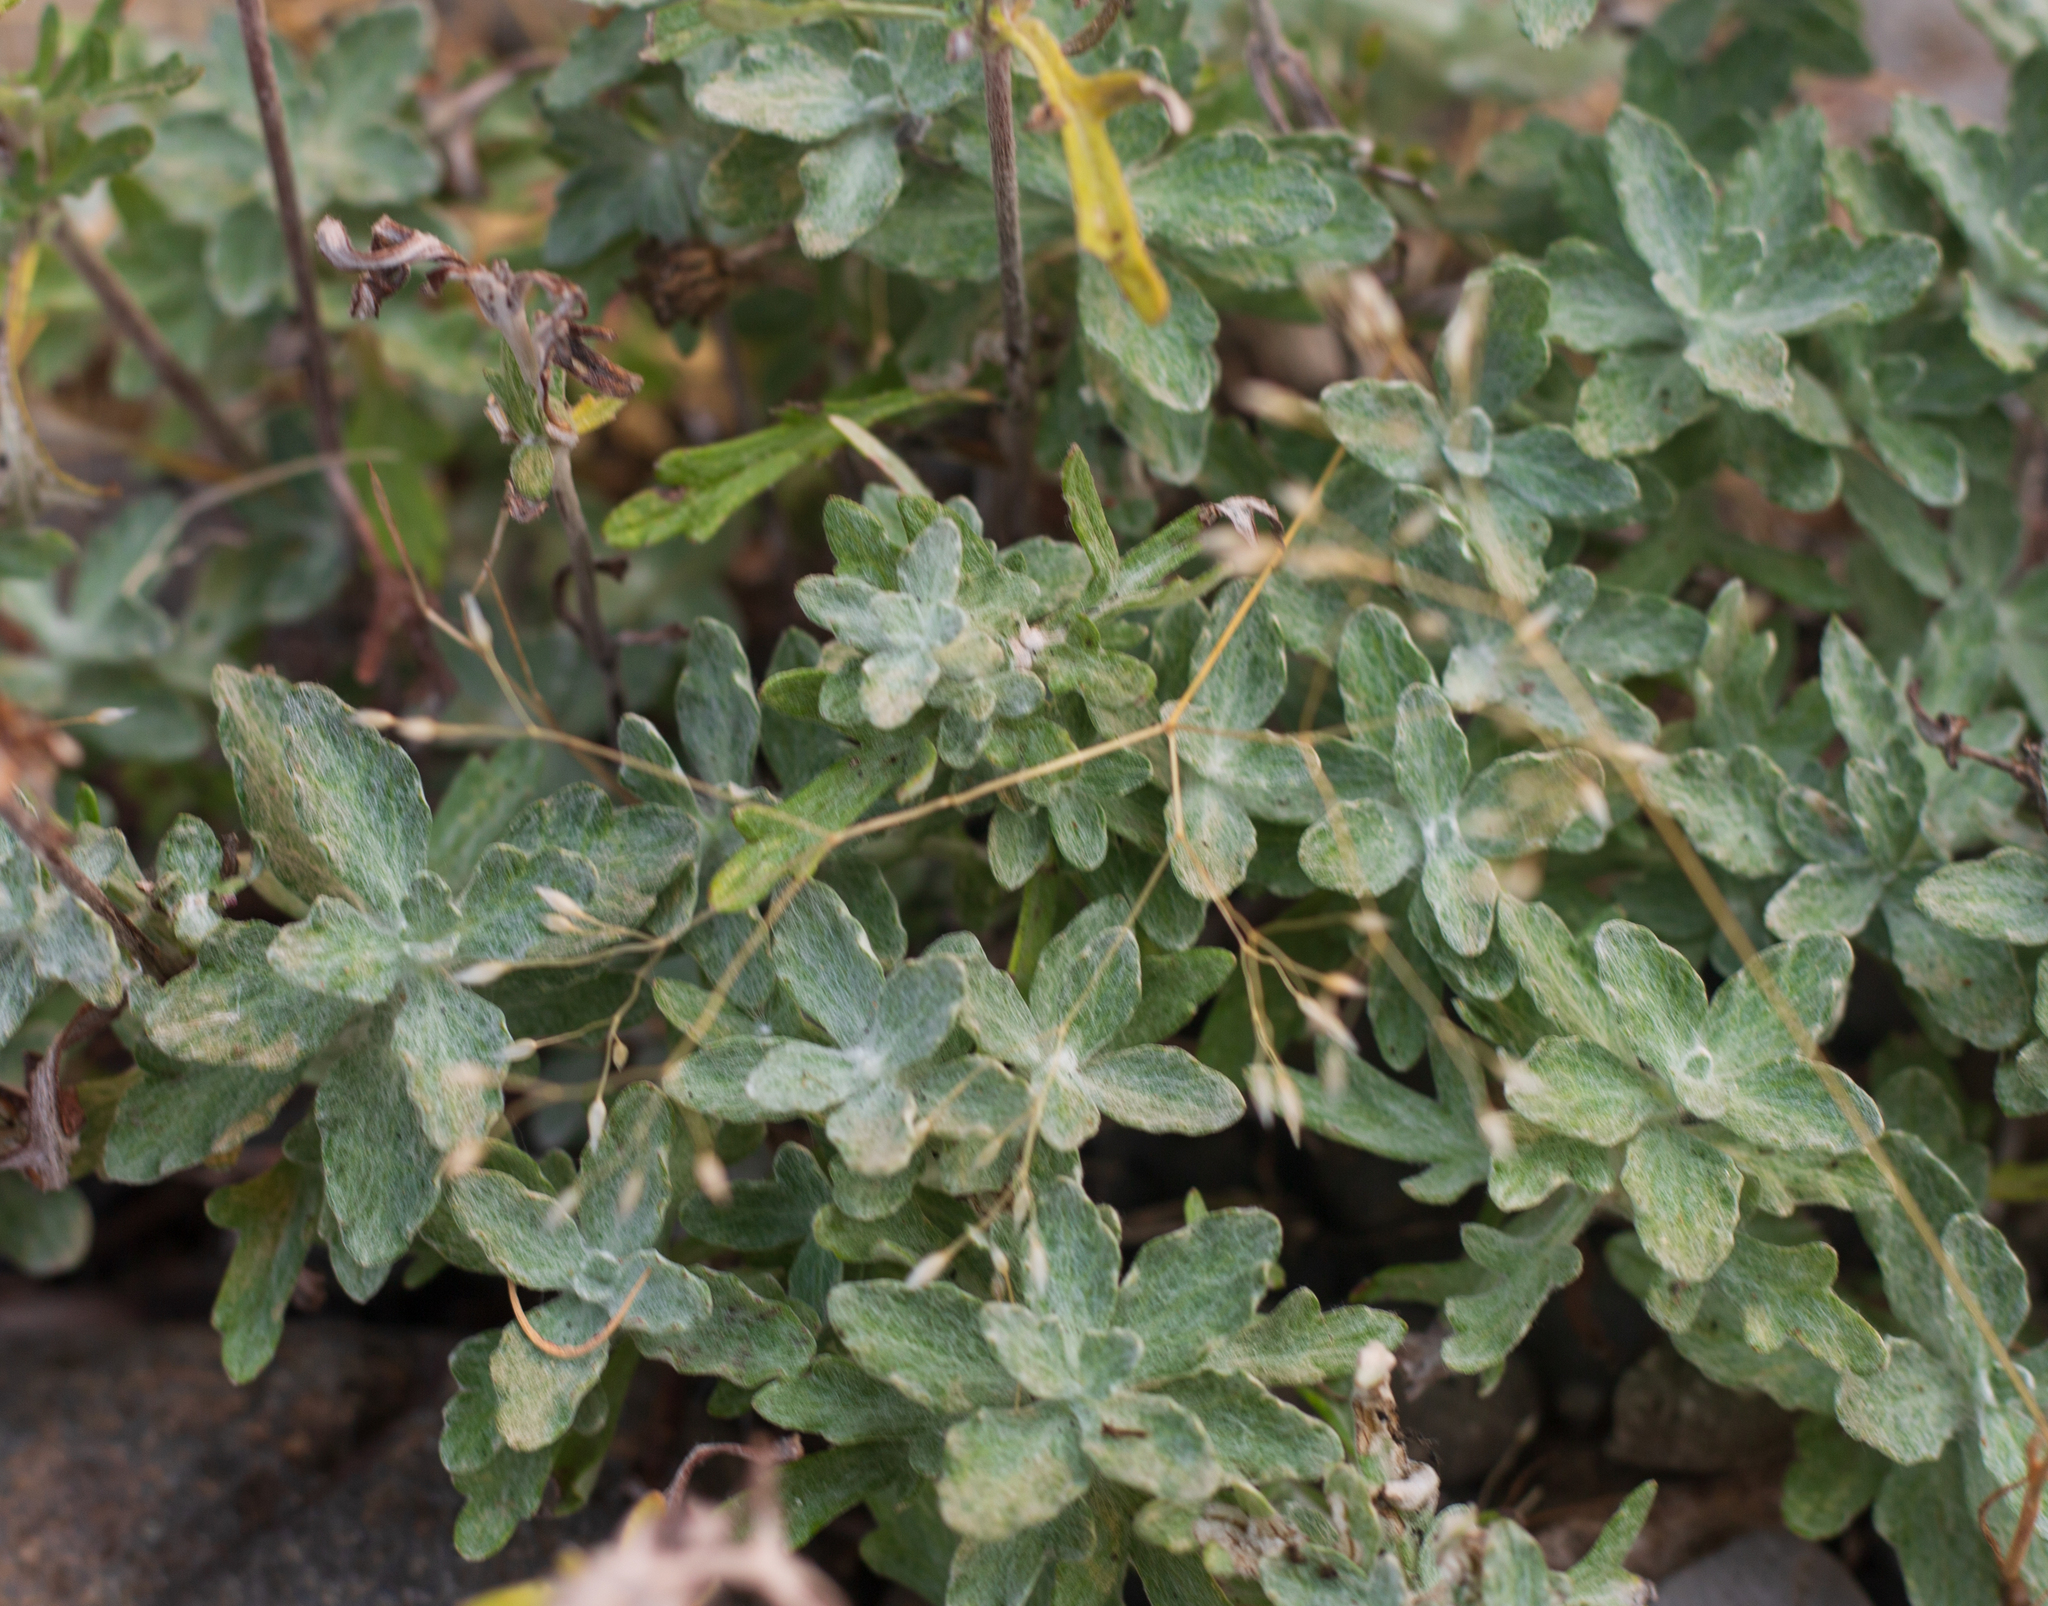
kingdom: Plantae
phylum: Tracheophyta
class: Magnoliopsida
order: Asterales
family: Asteraceae
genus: Eriophyllum
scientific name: Eriophyllum lanatum
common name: Common woolly-sunflower
